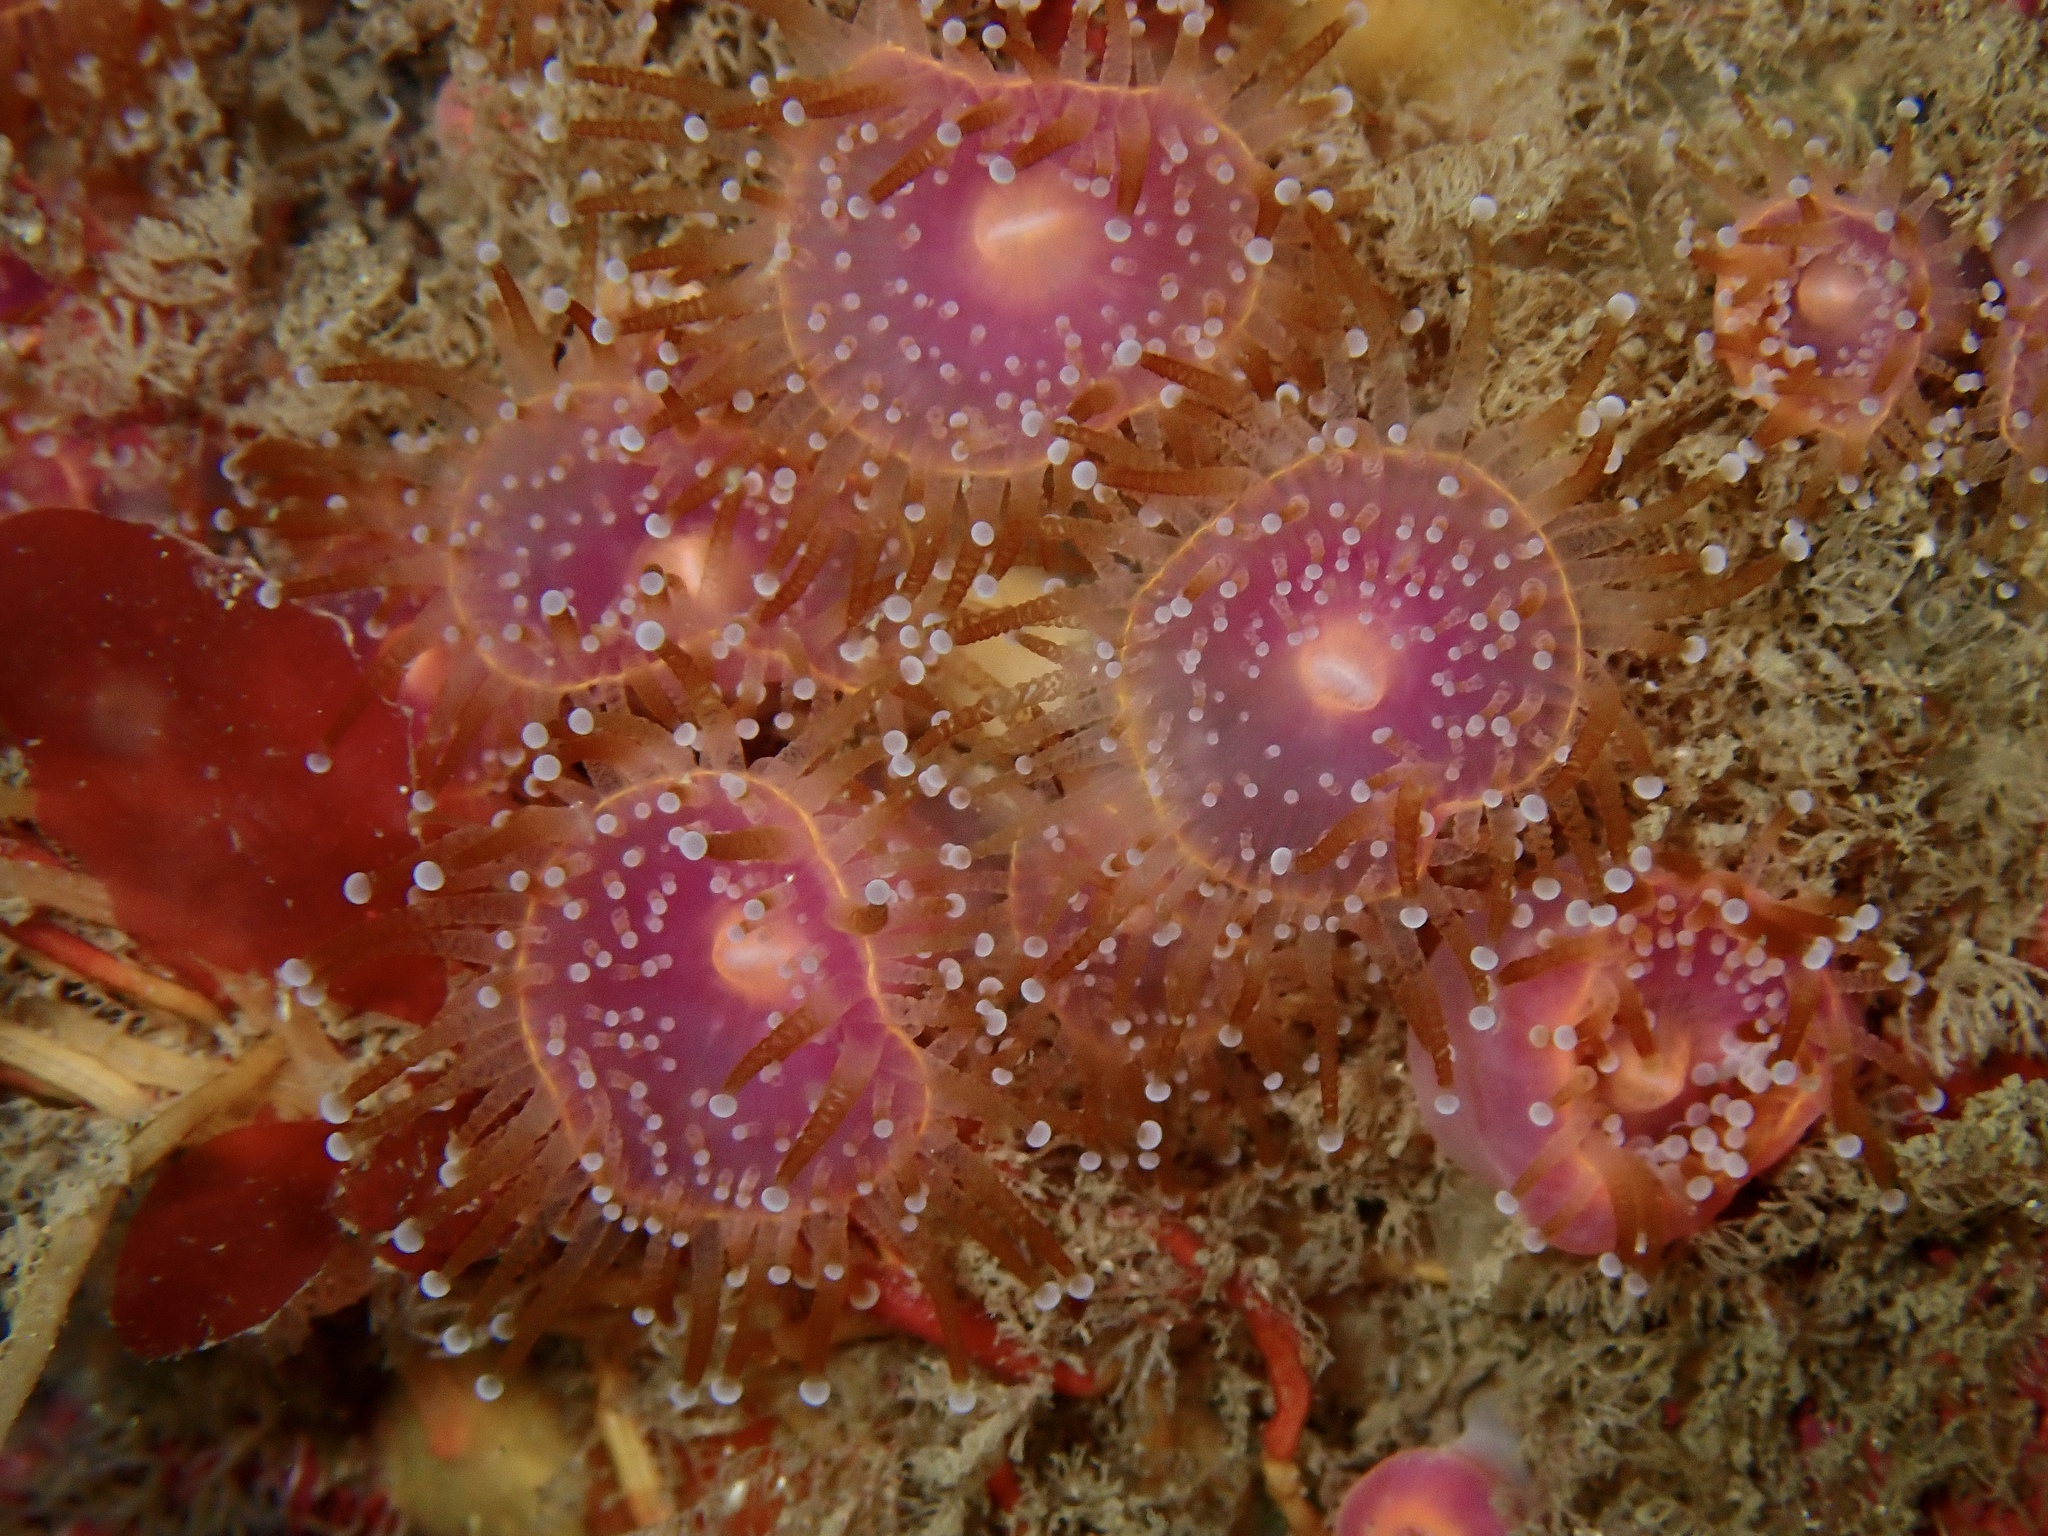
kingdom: Animalia
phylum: Cnidaria
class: Anthozoa
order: Corallimorpharia
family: Corallimorphidae
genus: Corynactis
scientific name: Corynactis viridis
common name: Jewel anemone
